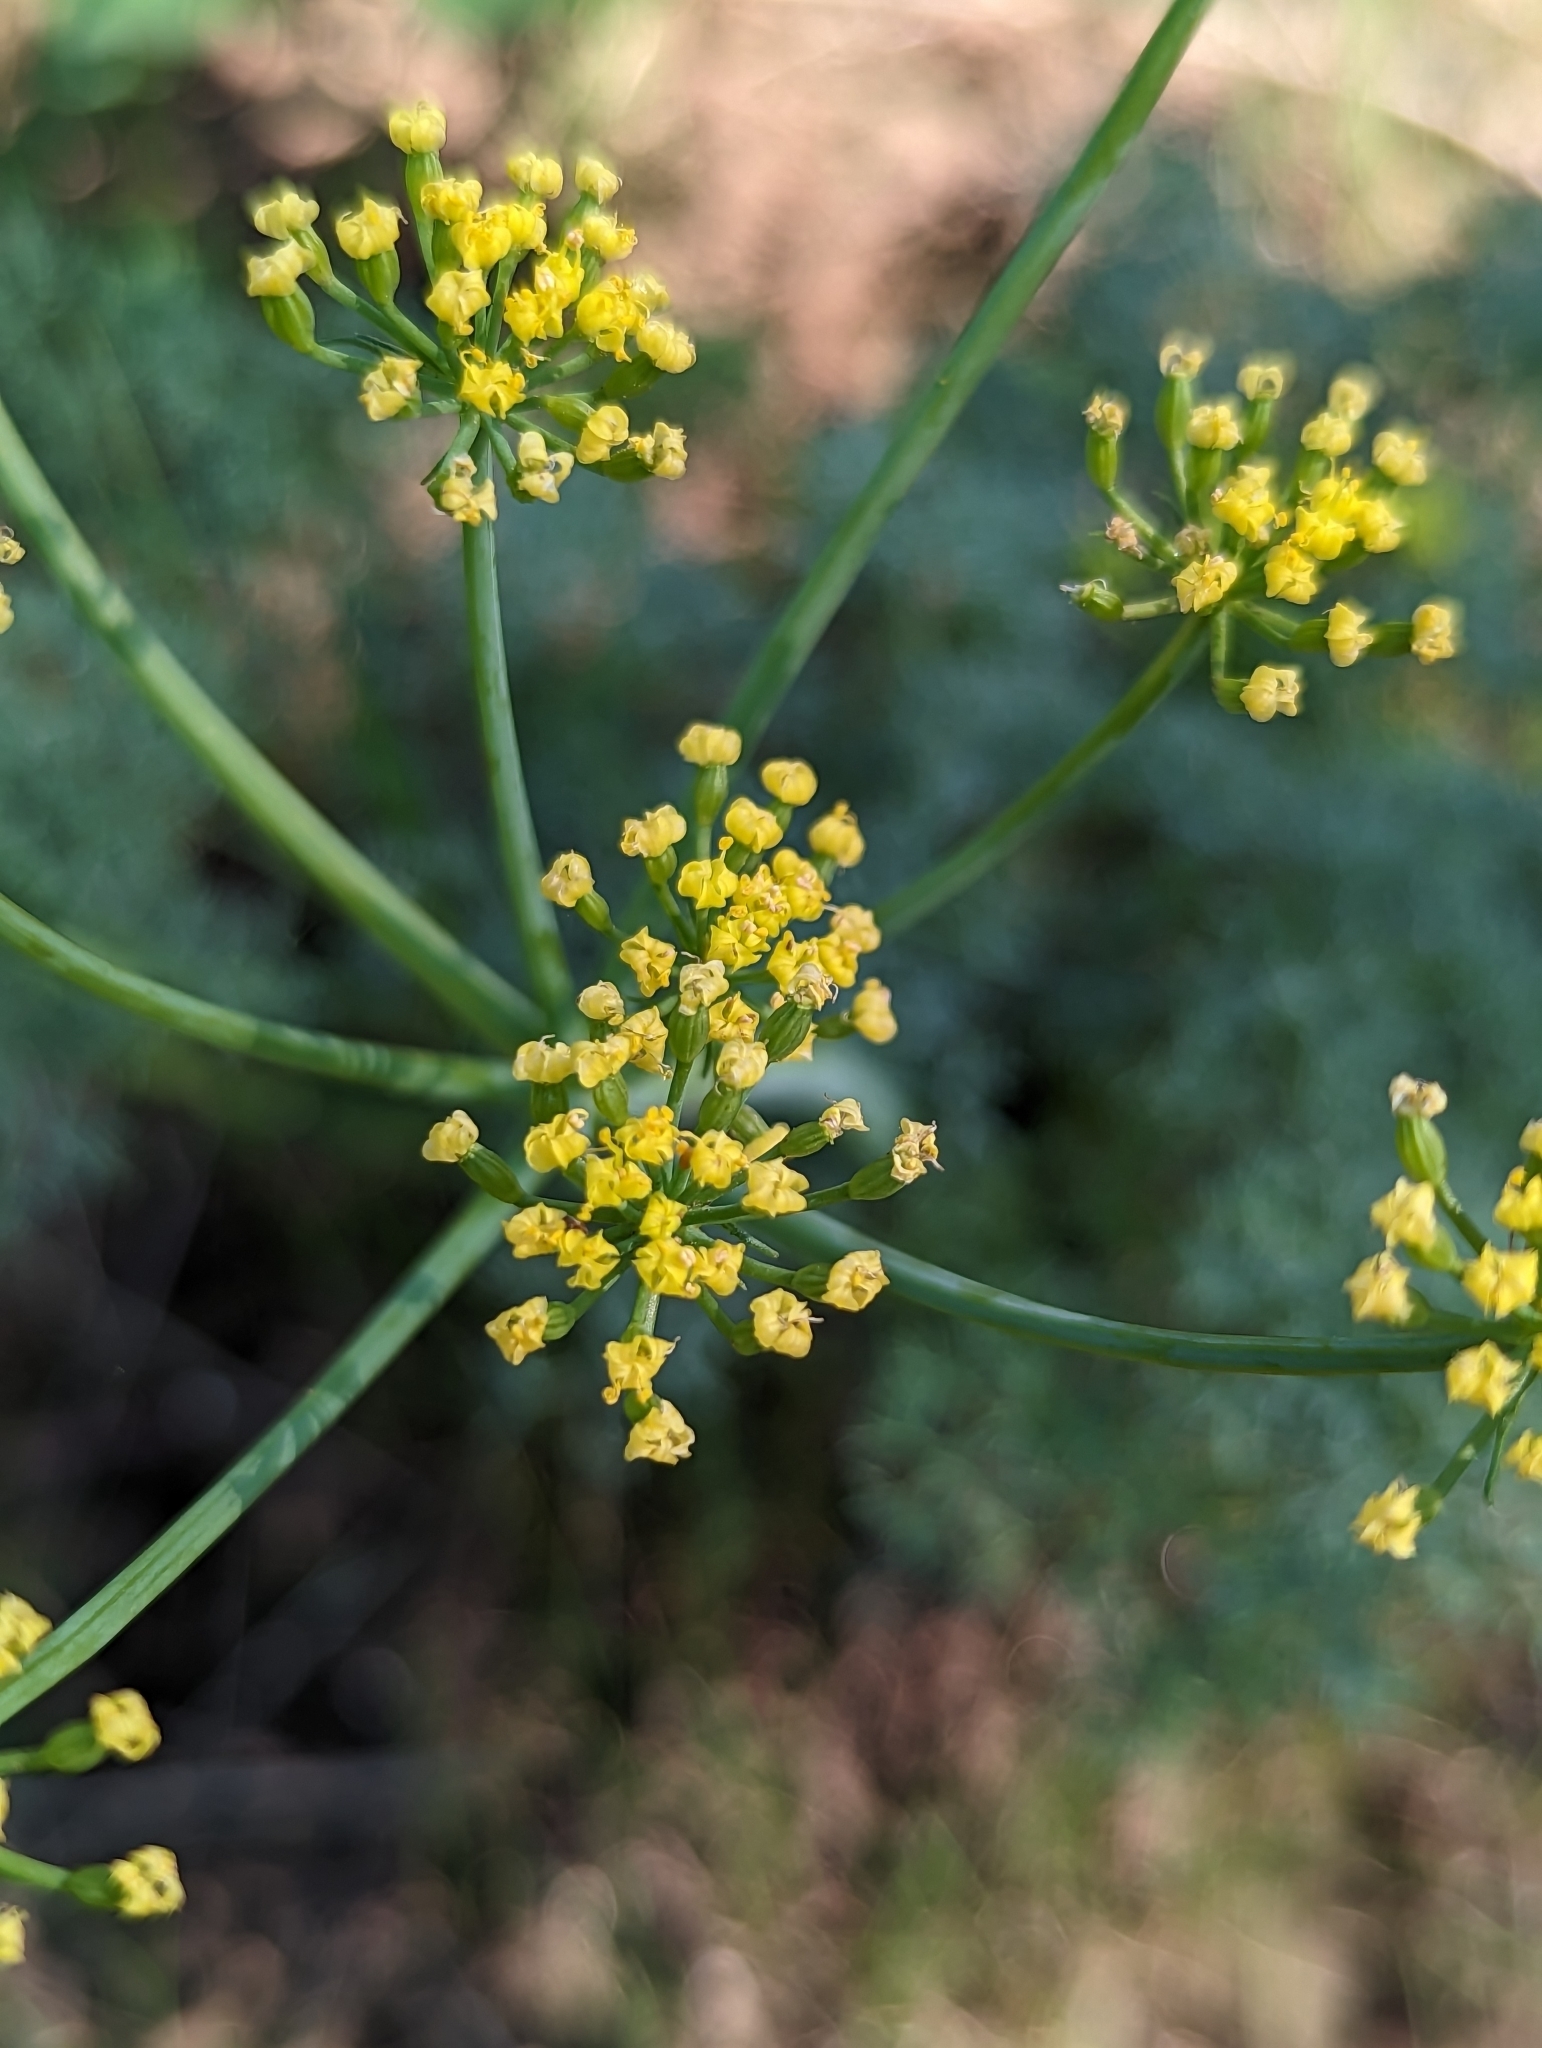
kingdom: Plantae
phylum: Tracheophyta
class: Magnoliopsida
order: Apiales
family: Apiaceae
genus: Lomatium
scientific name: Lomatium papilioniferum
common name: Butterfly lomatium
